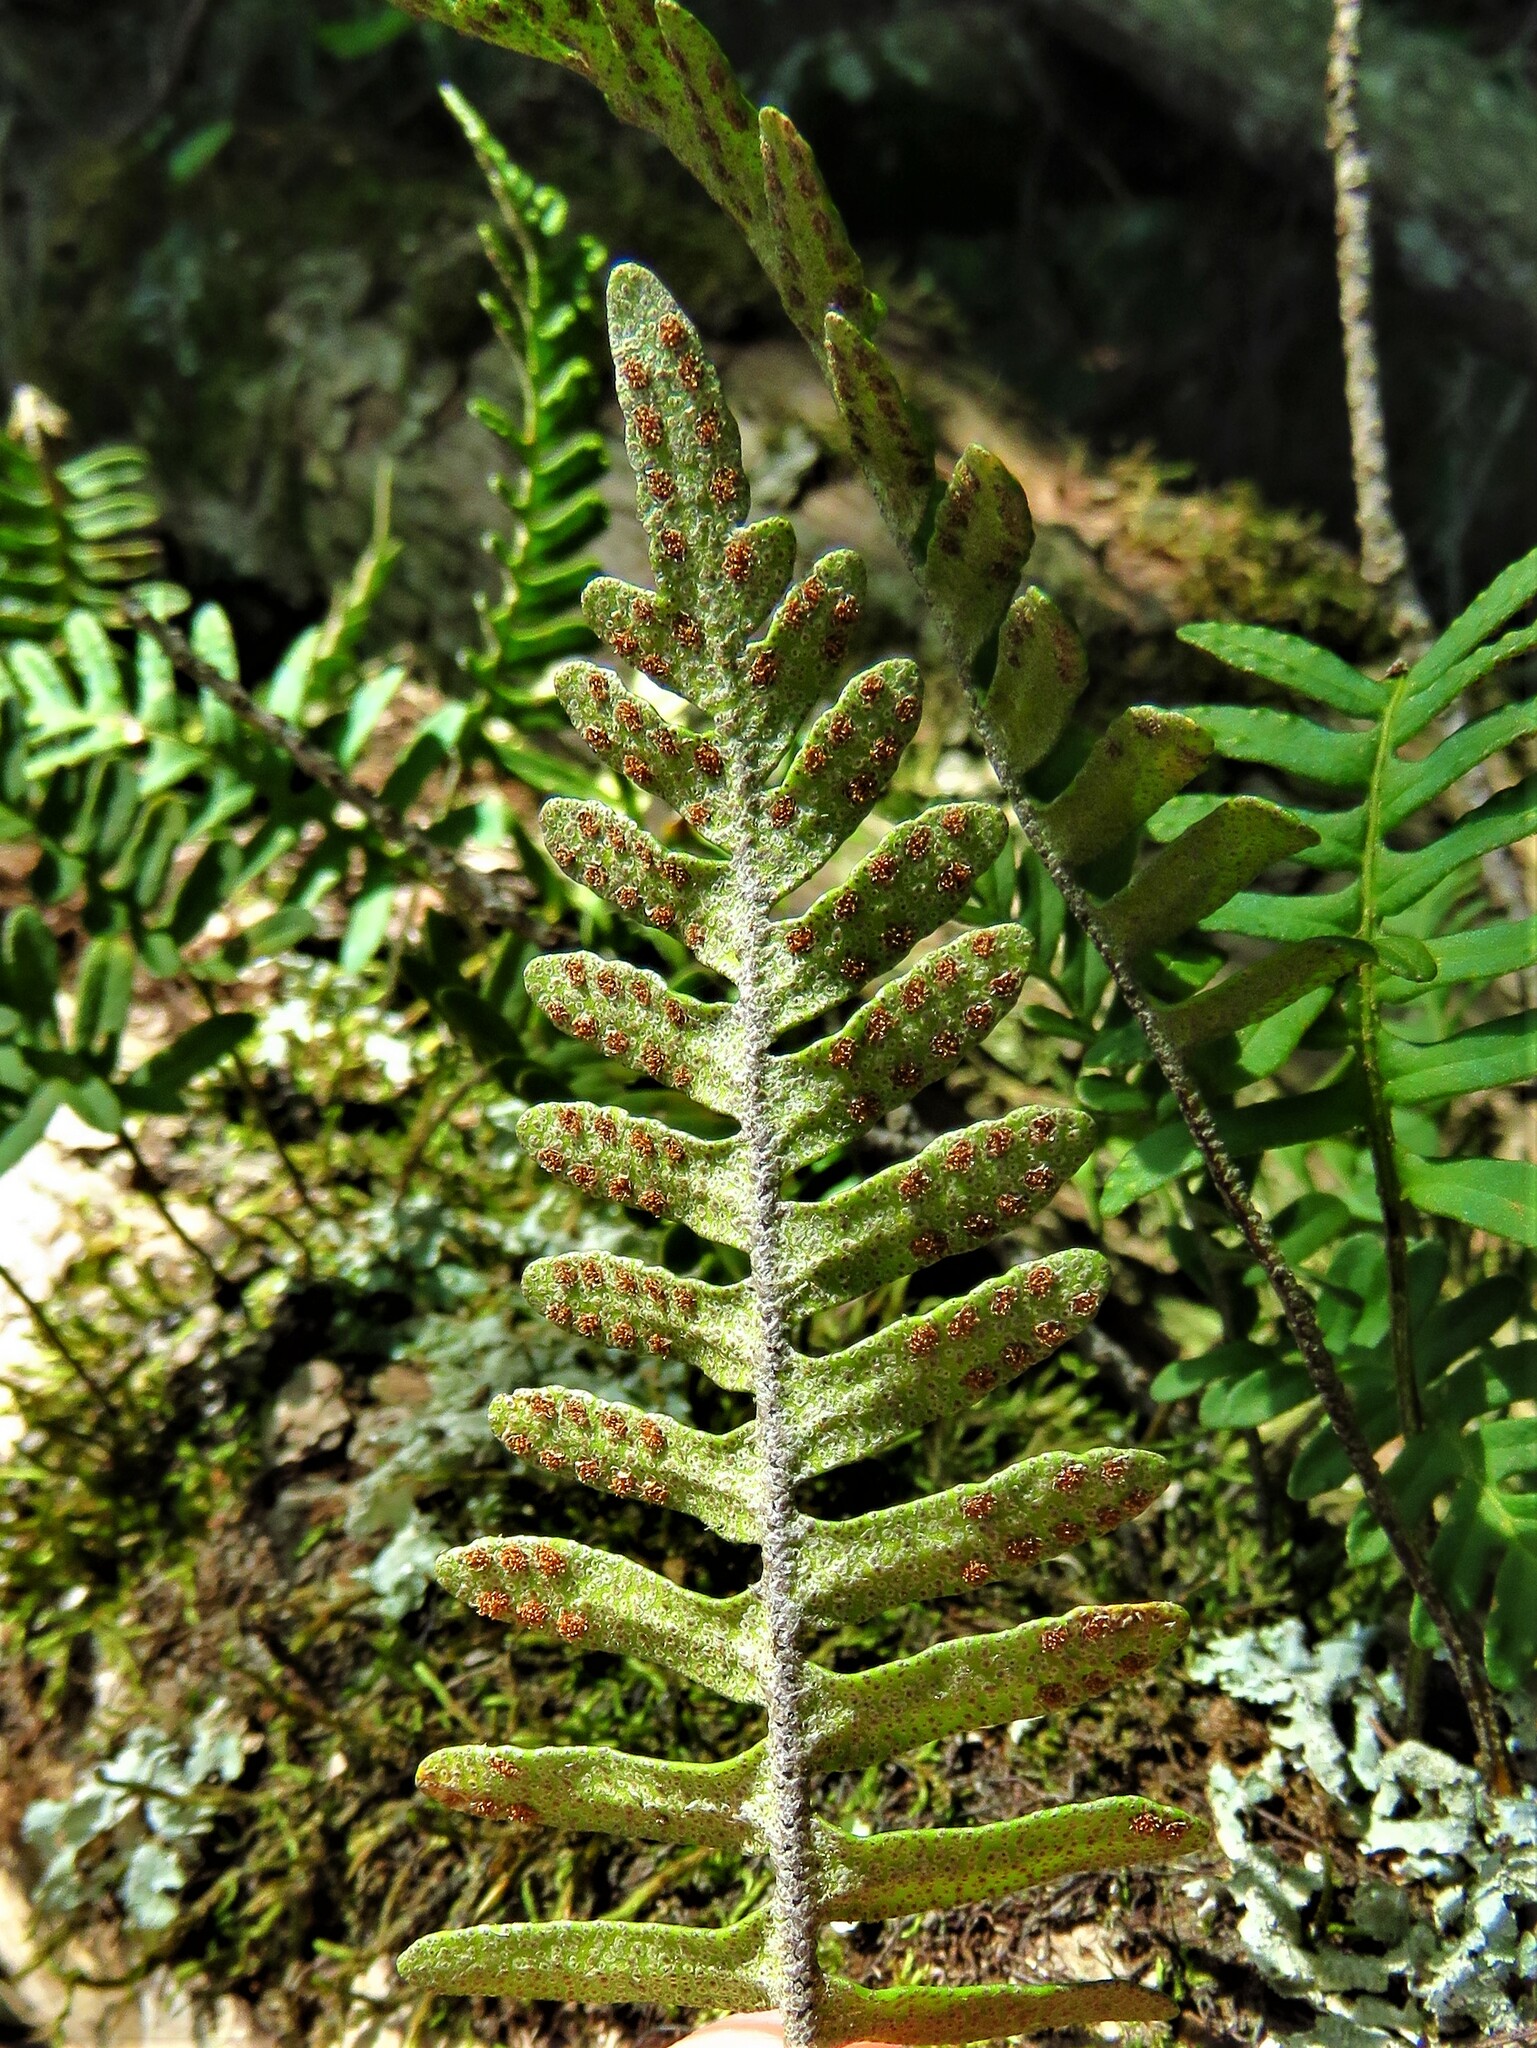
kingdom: Plantae
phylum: Tracheophyta
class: Polypodiopsida
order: Polypodiales
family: Polypodiaceae
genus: Pleopeltis
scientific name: Pleopeltis michauxiana
